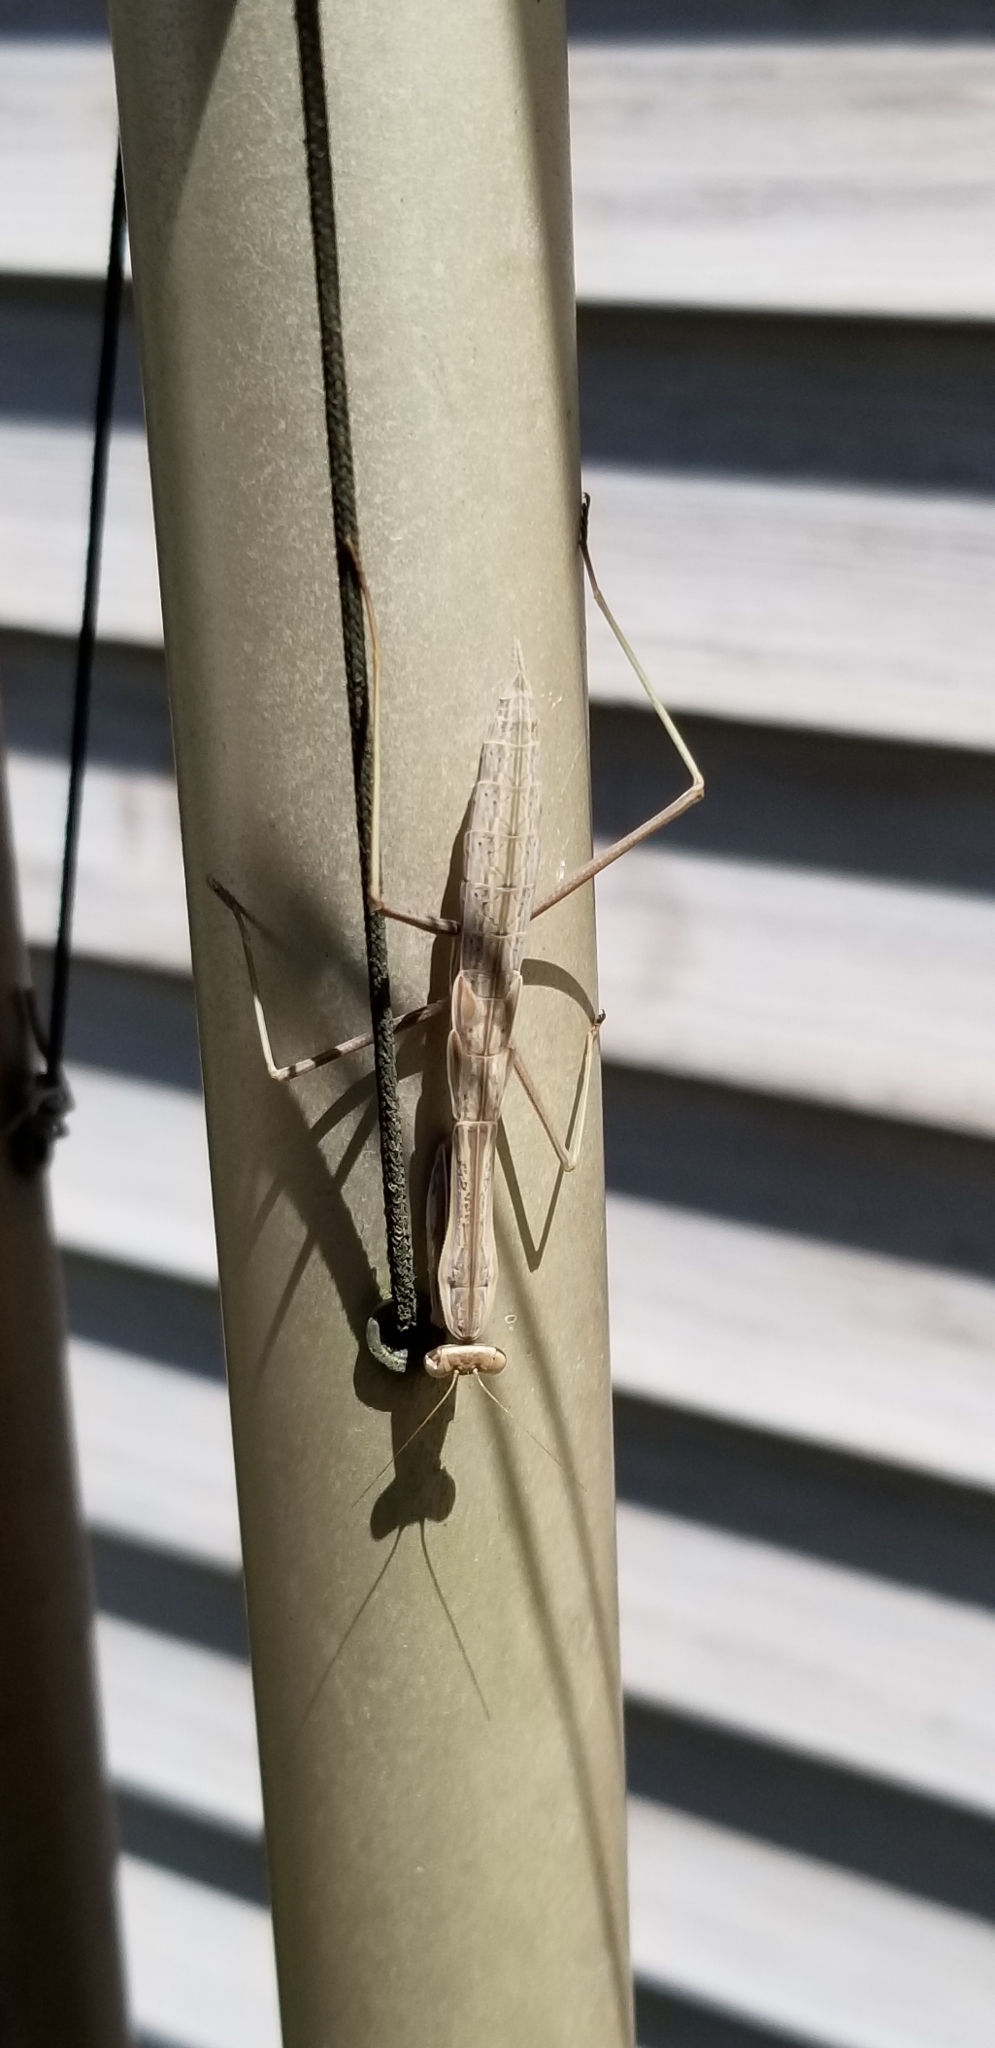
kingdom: Animalia
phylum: Arthropoda
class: Insecta
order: Mantodea
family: Mantidae
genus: Tenodera
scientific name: Tenodera sinensis
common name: Chinese mantis
